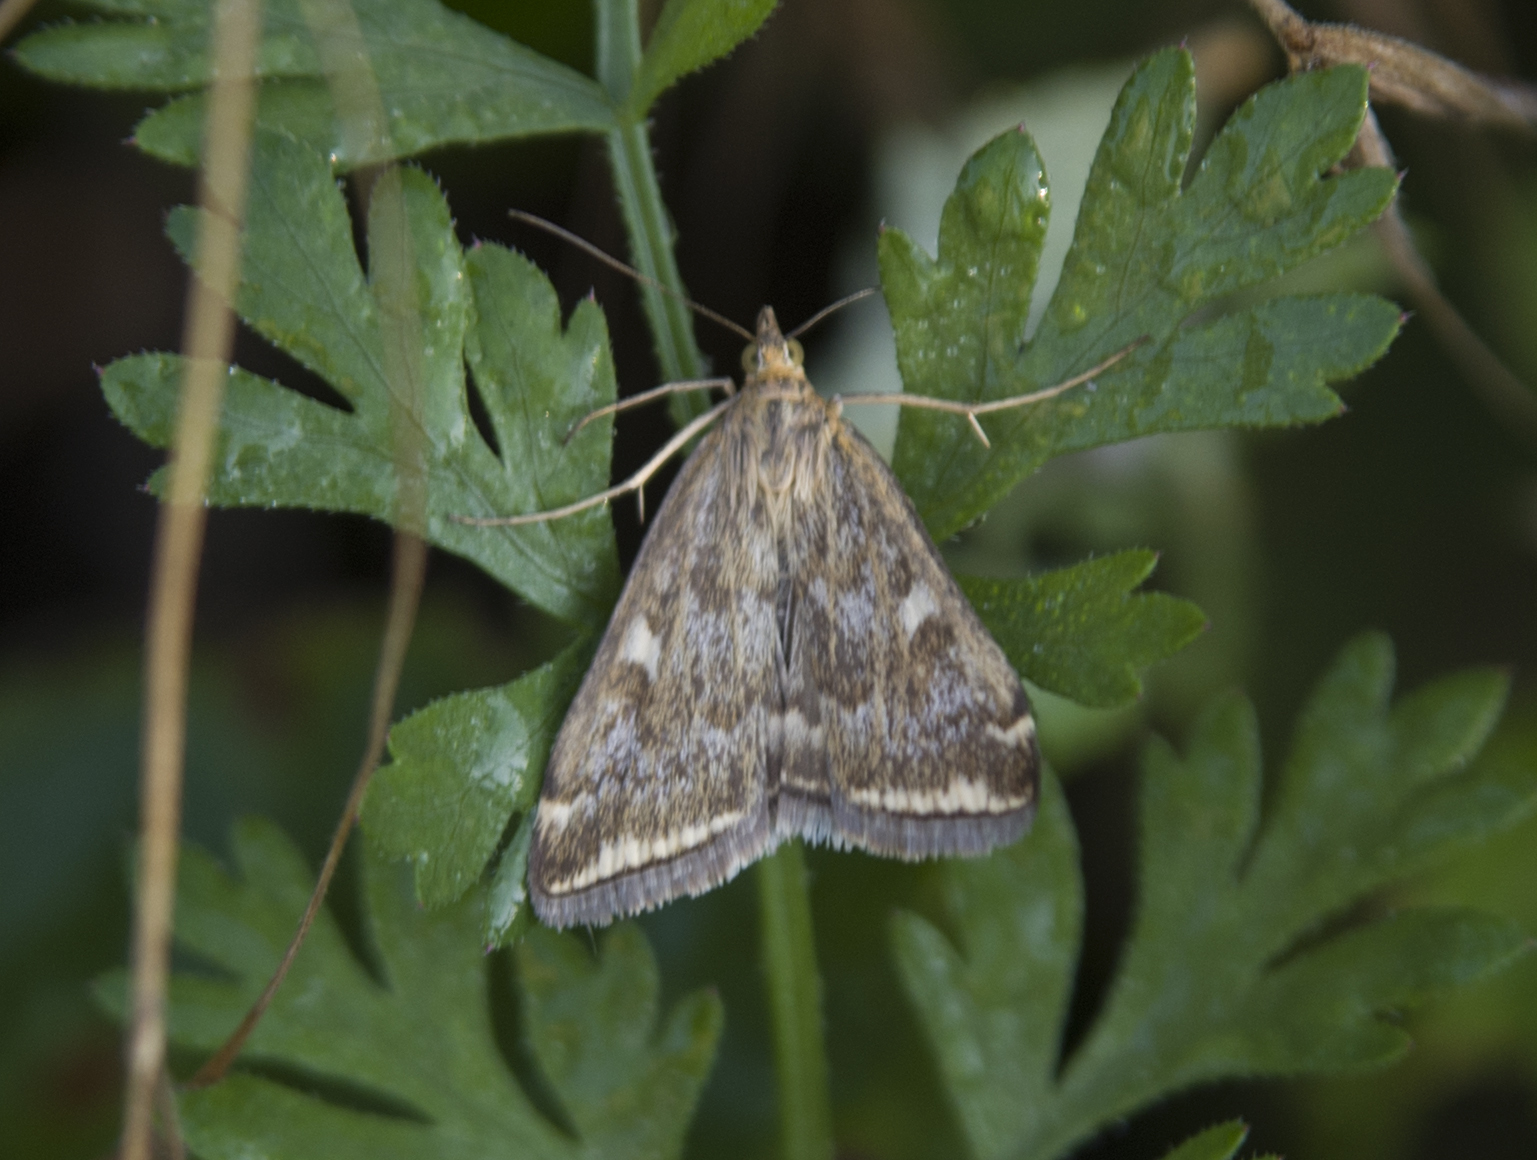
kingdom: Animalia
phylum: Arthropoda
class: Insecta
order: Lepidoptera
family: Crambidae
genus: Loxostege
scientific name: Loxostege sticticalis
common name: Crambid moth
